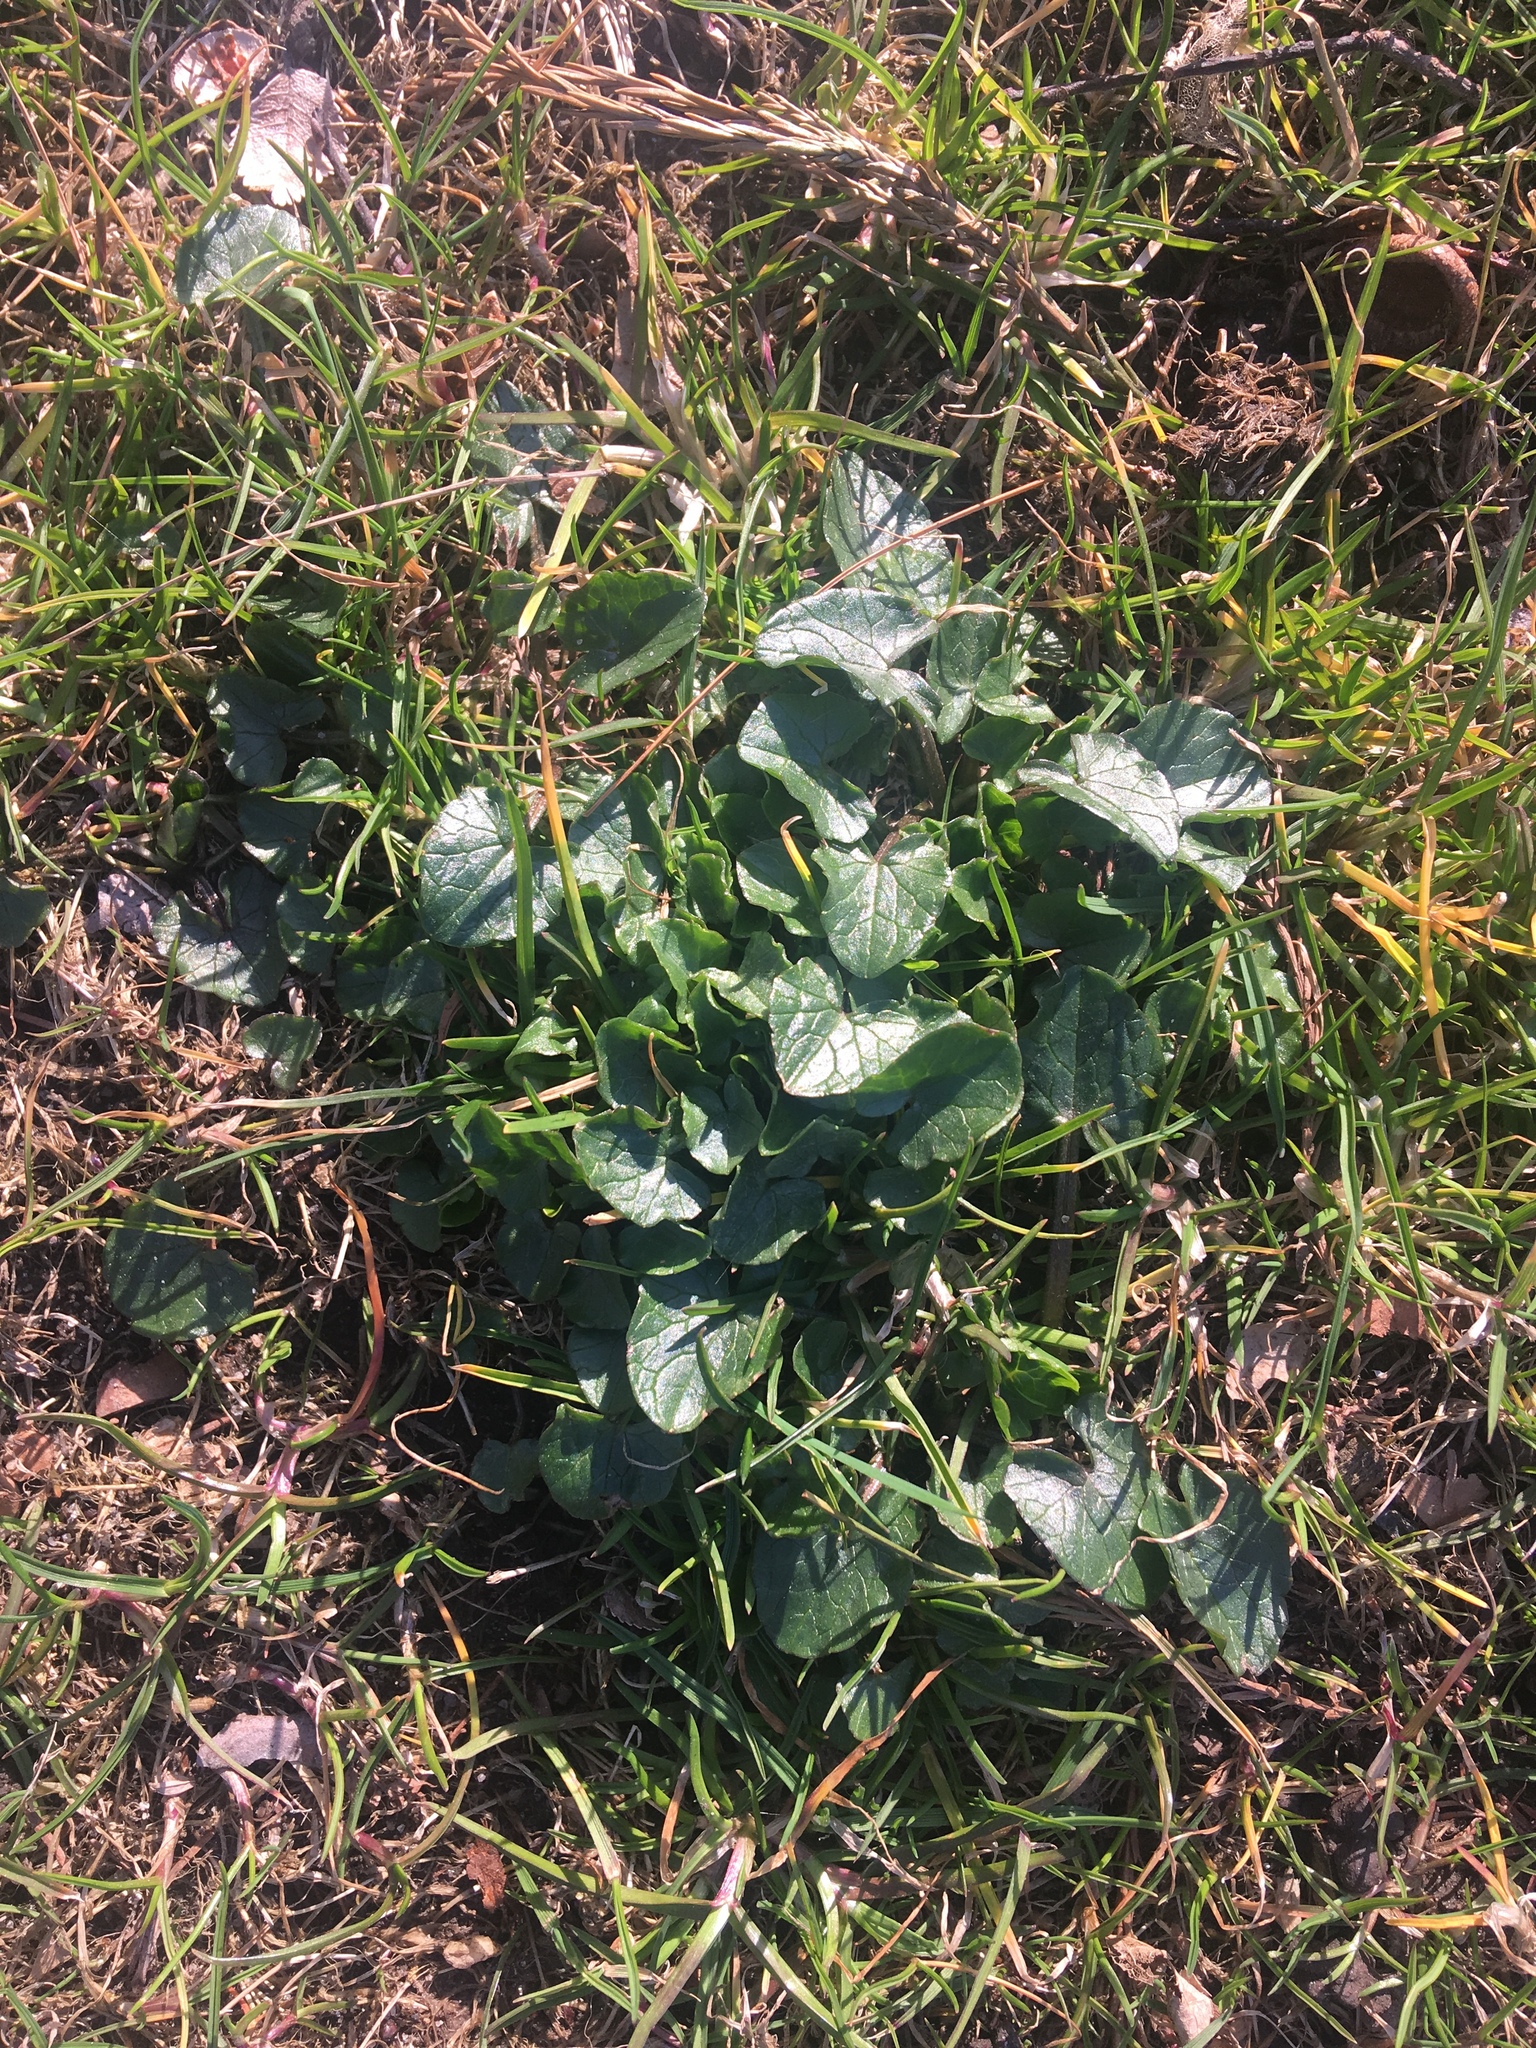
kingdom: Plantae
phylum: Tracheophyta
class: Magnoliopsida
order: Ranunculales
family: Ranunculaceae
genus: Ficaria
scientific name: Ficaria verna
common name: Lesser celandine
